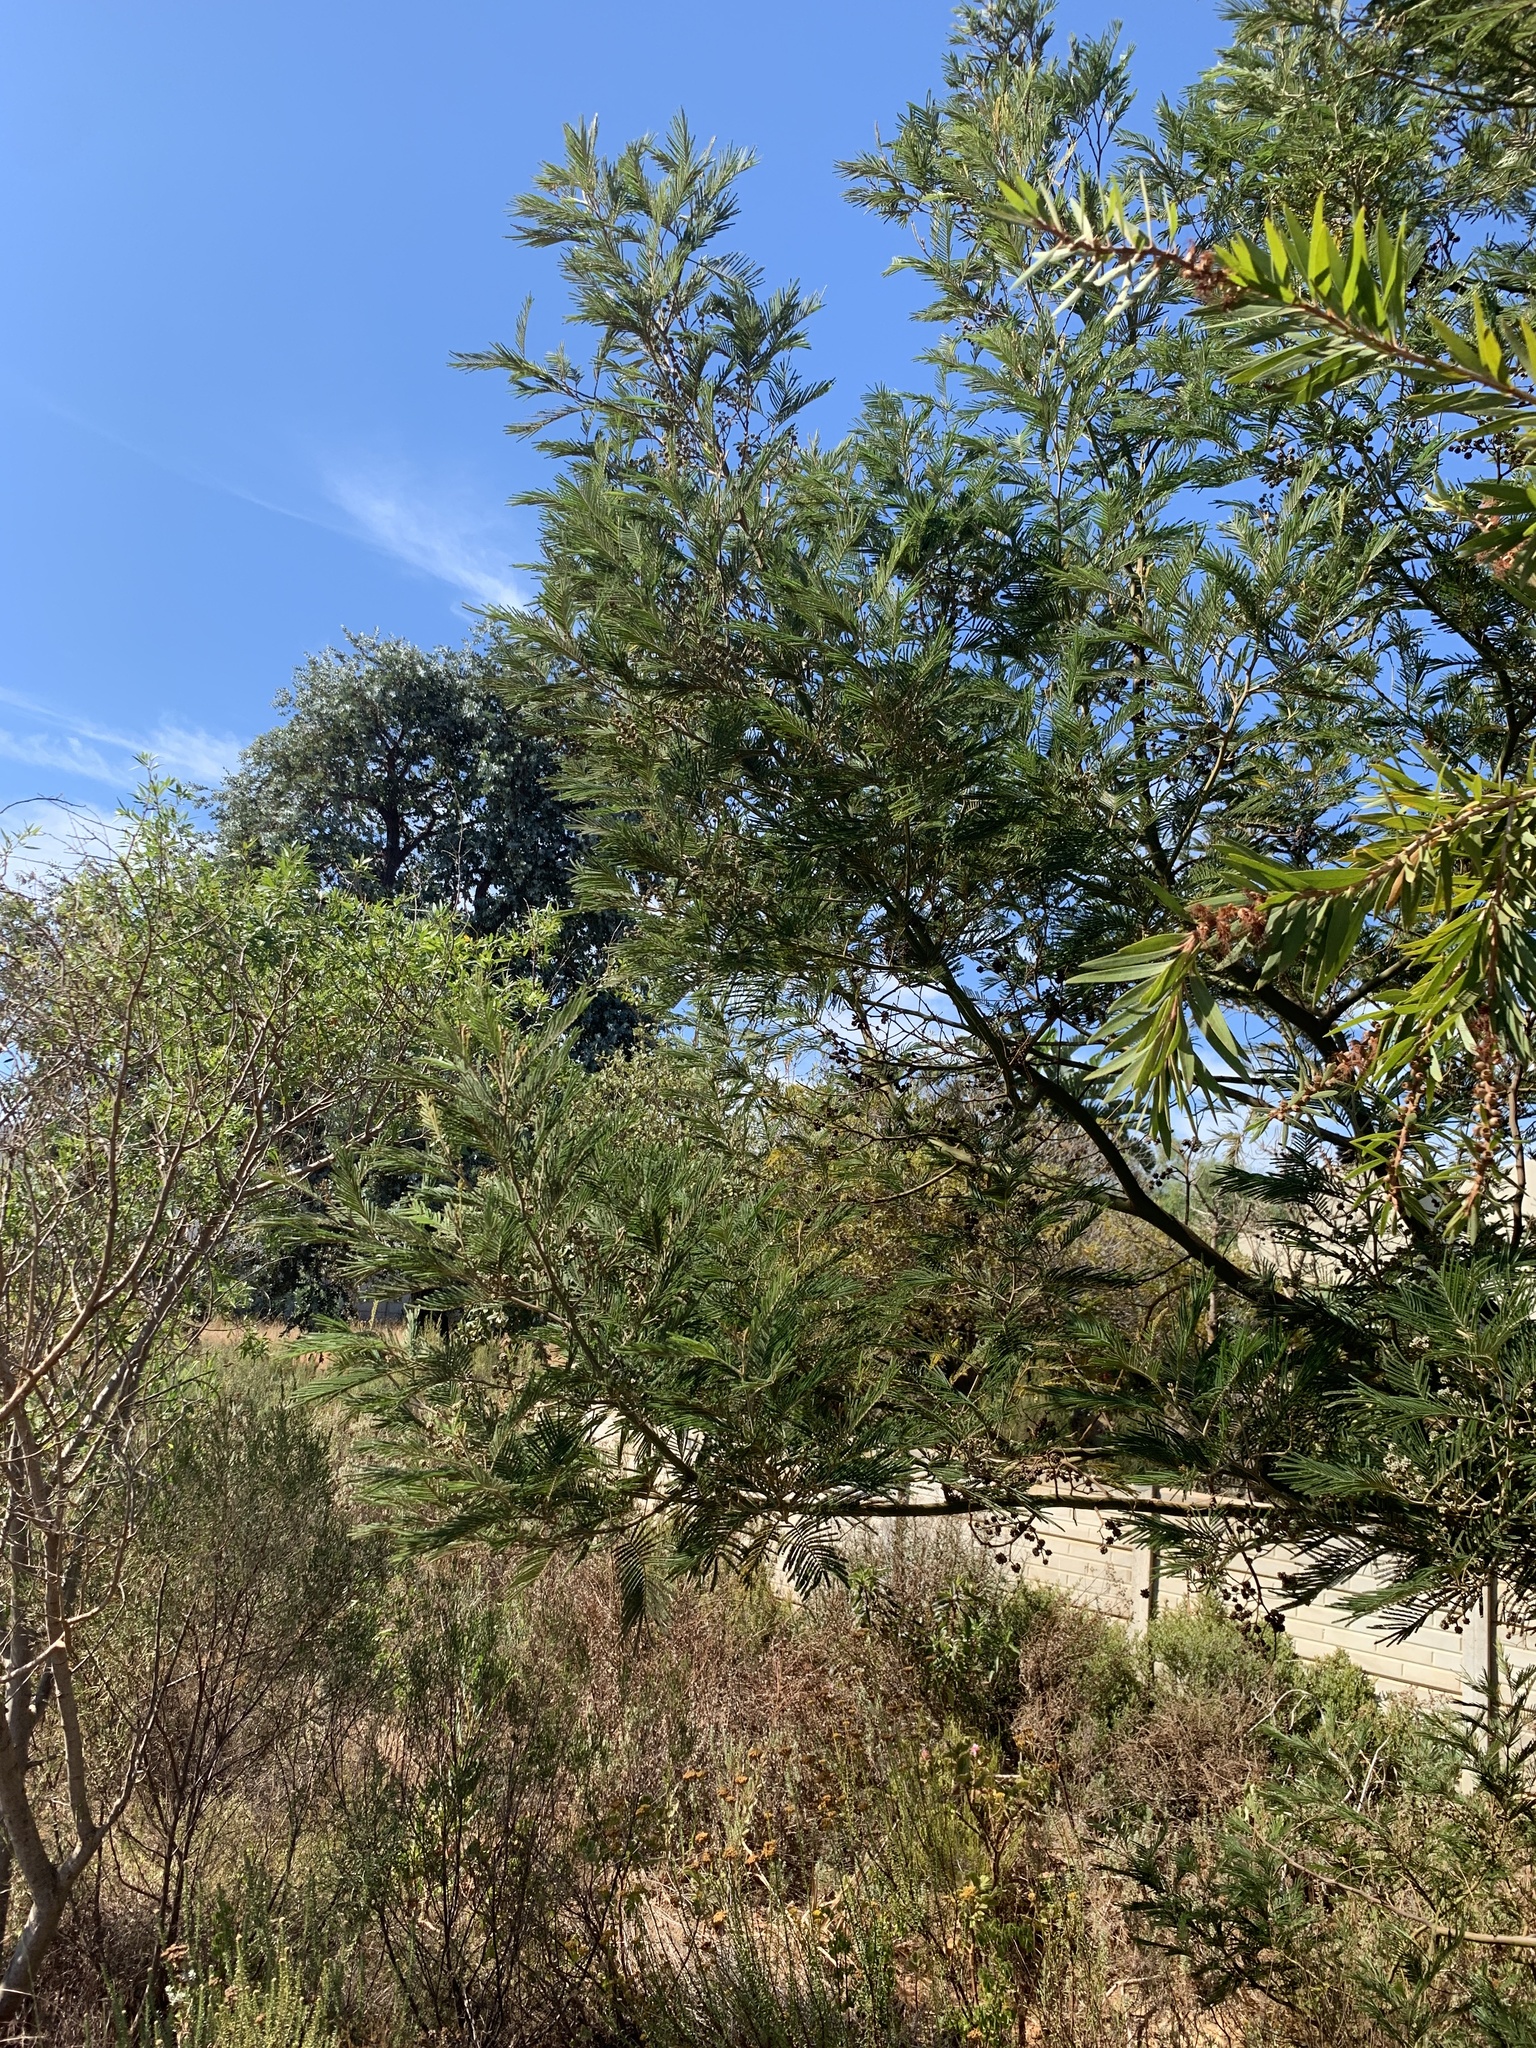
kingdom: Plantae
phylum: Tracheophyta
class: Magnoliopsida
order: Fabales
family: Fabaceae
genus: Acacia
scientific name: Acacia mearnsii
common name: Black wattle
